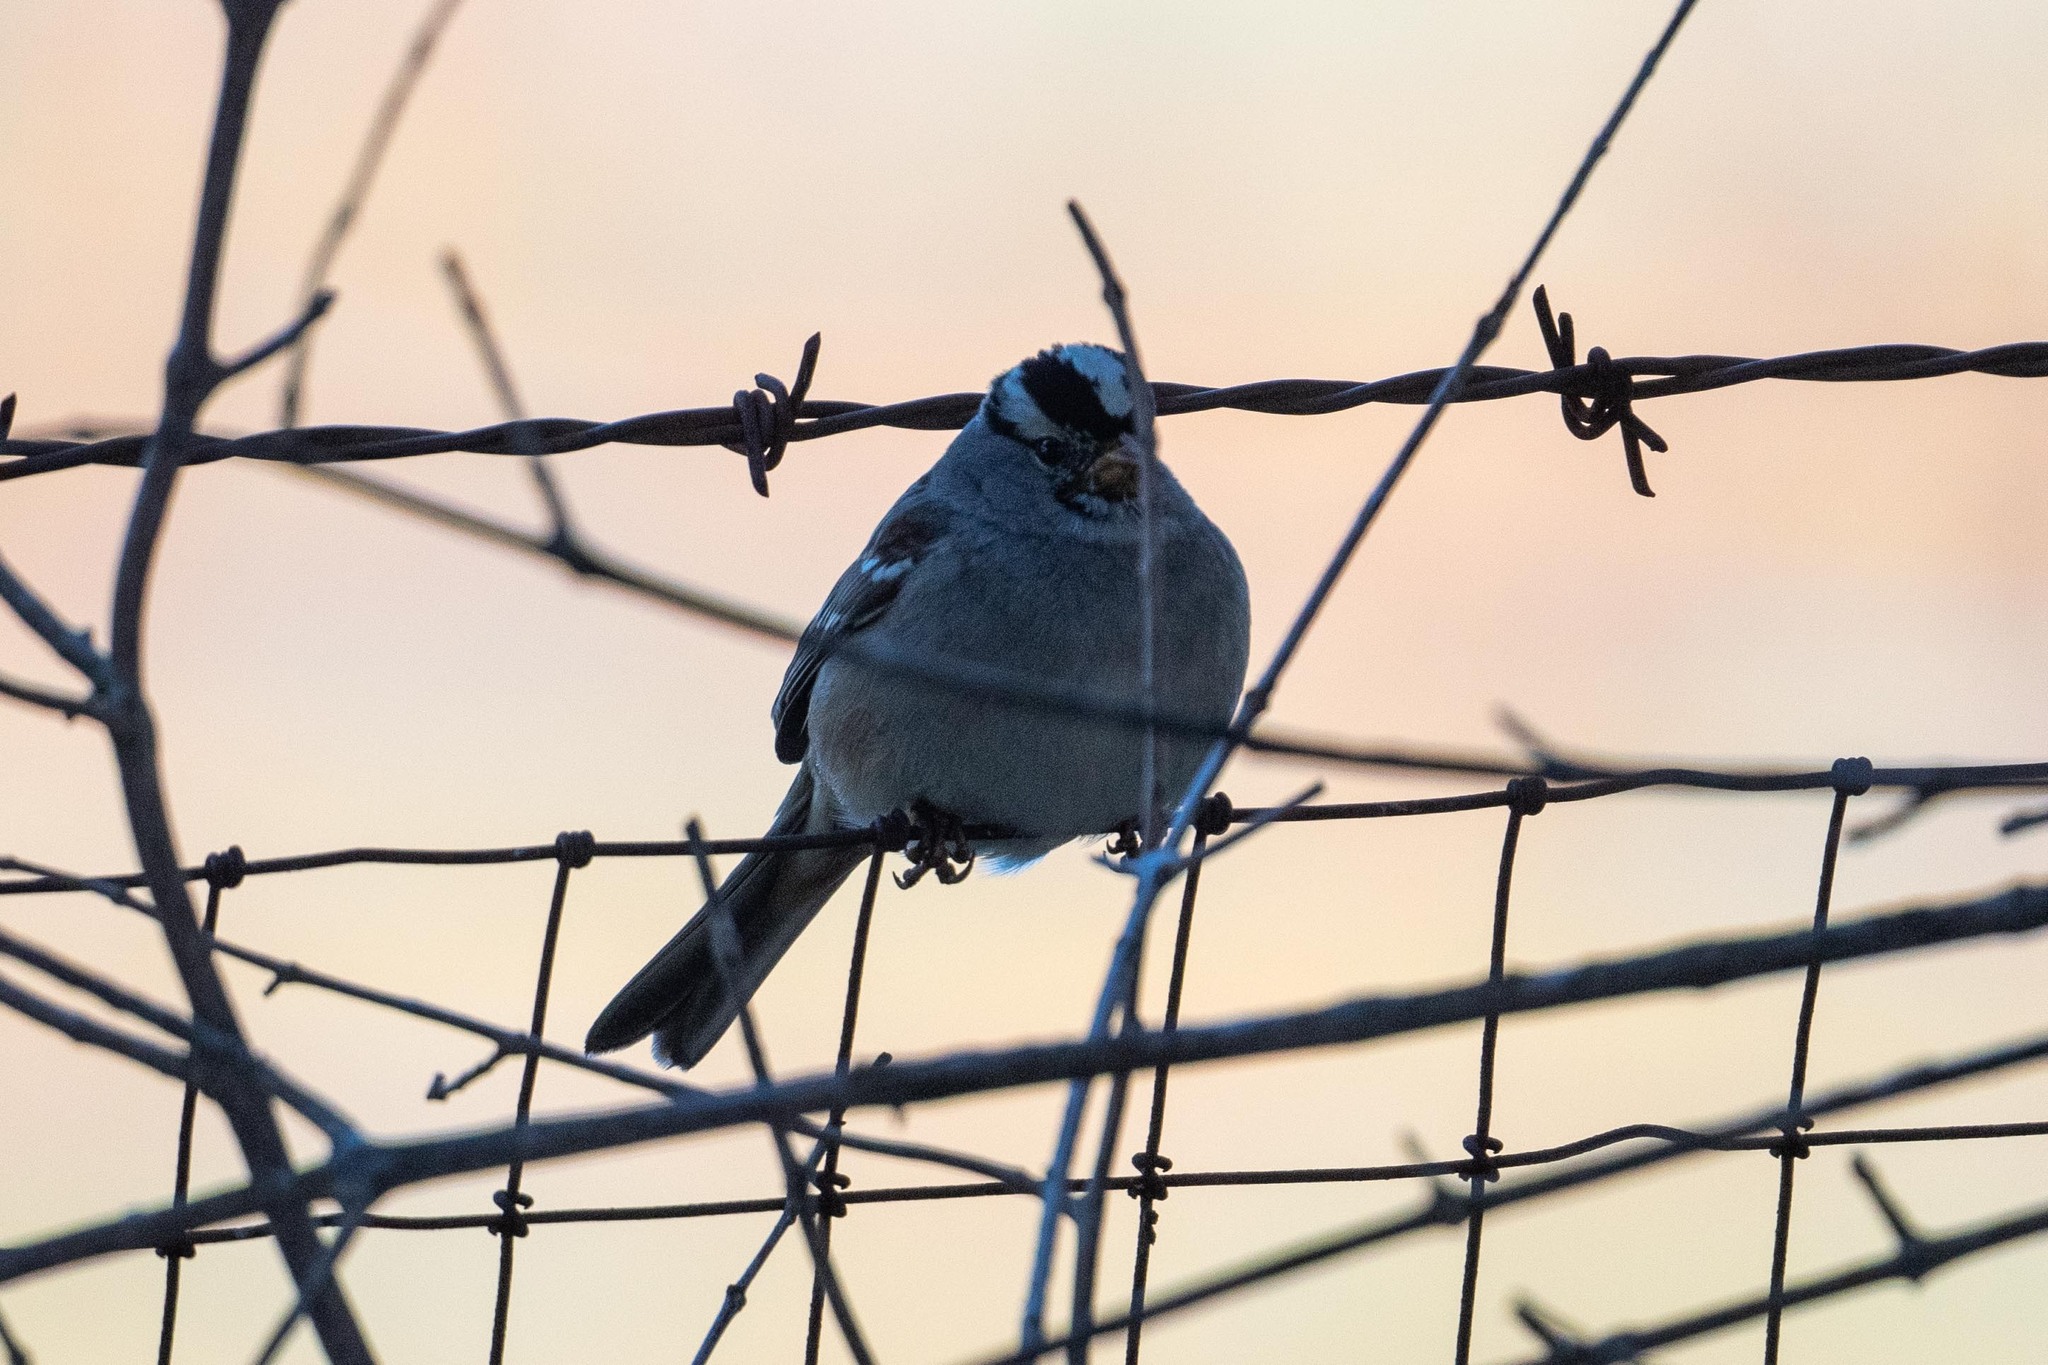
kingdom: Animalia
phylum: Chordata
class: Aves
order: Passeriformes
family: Passerellidae
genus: Zonotrichia
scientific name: Zonotrichia leucophrys
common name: White-crowned sparrow
